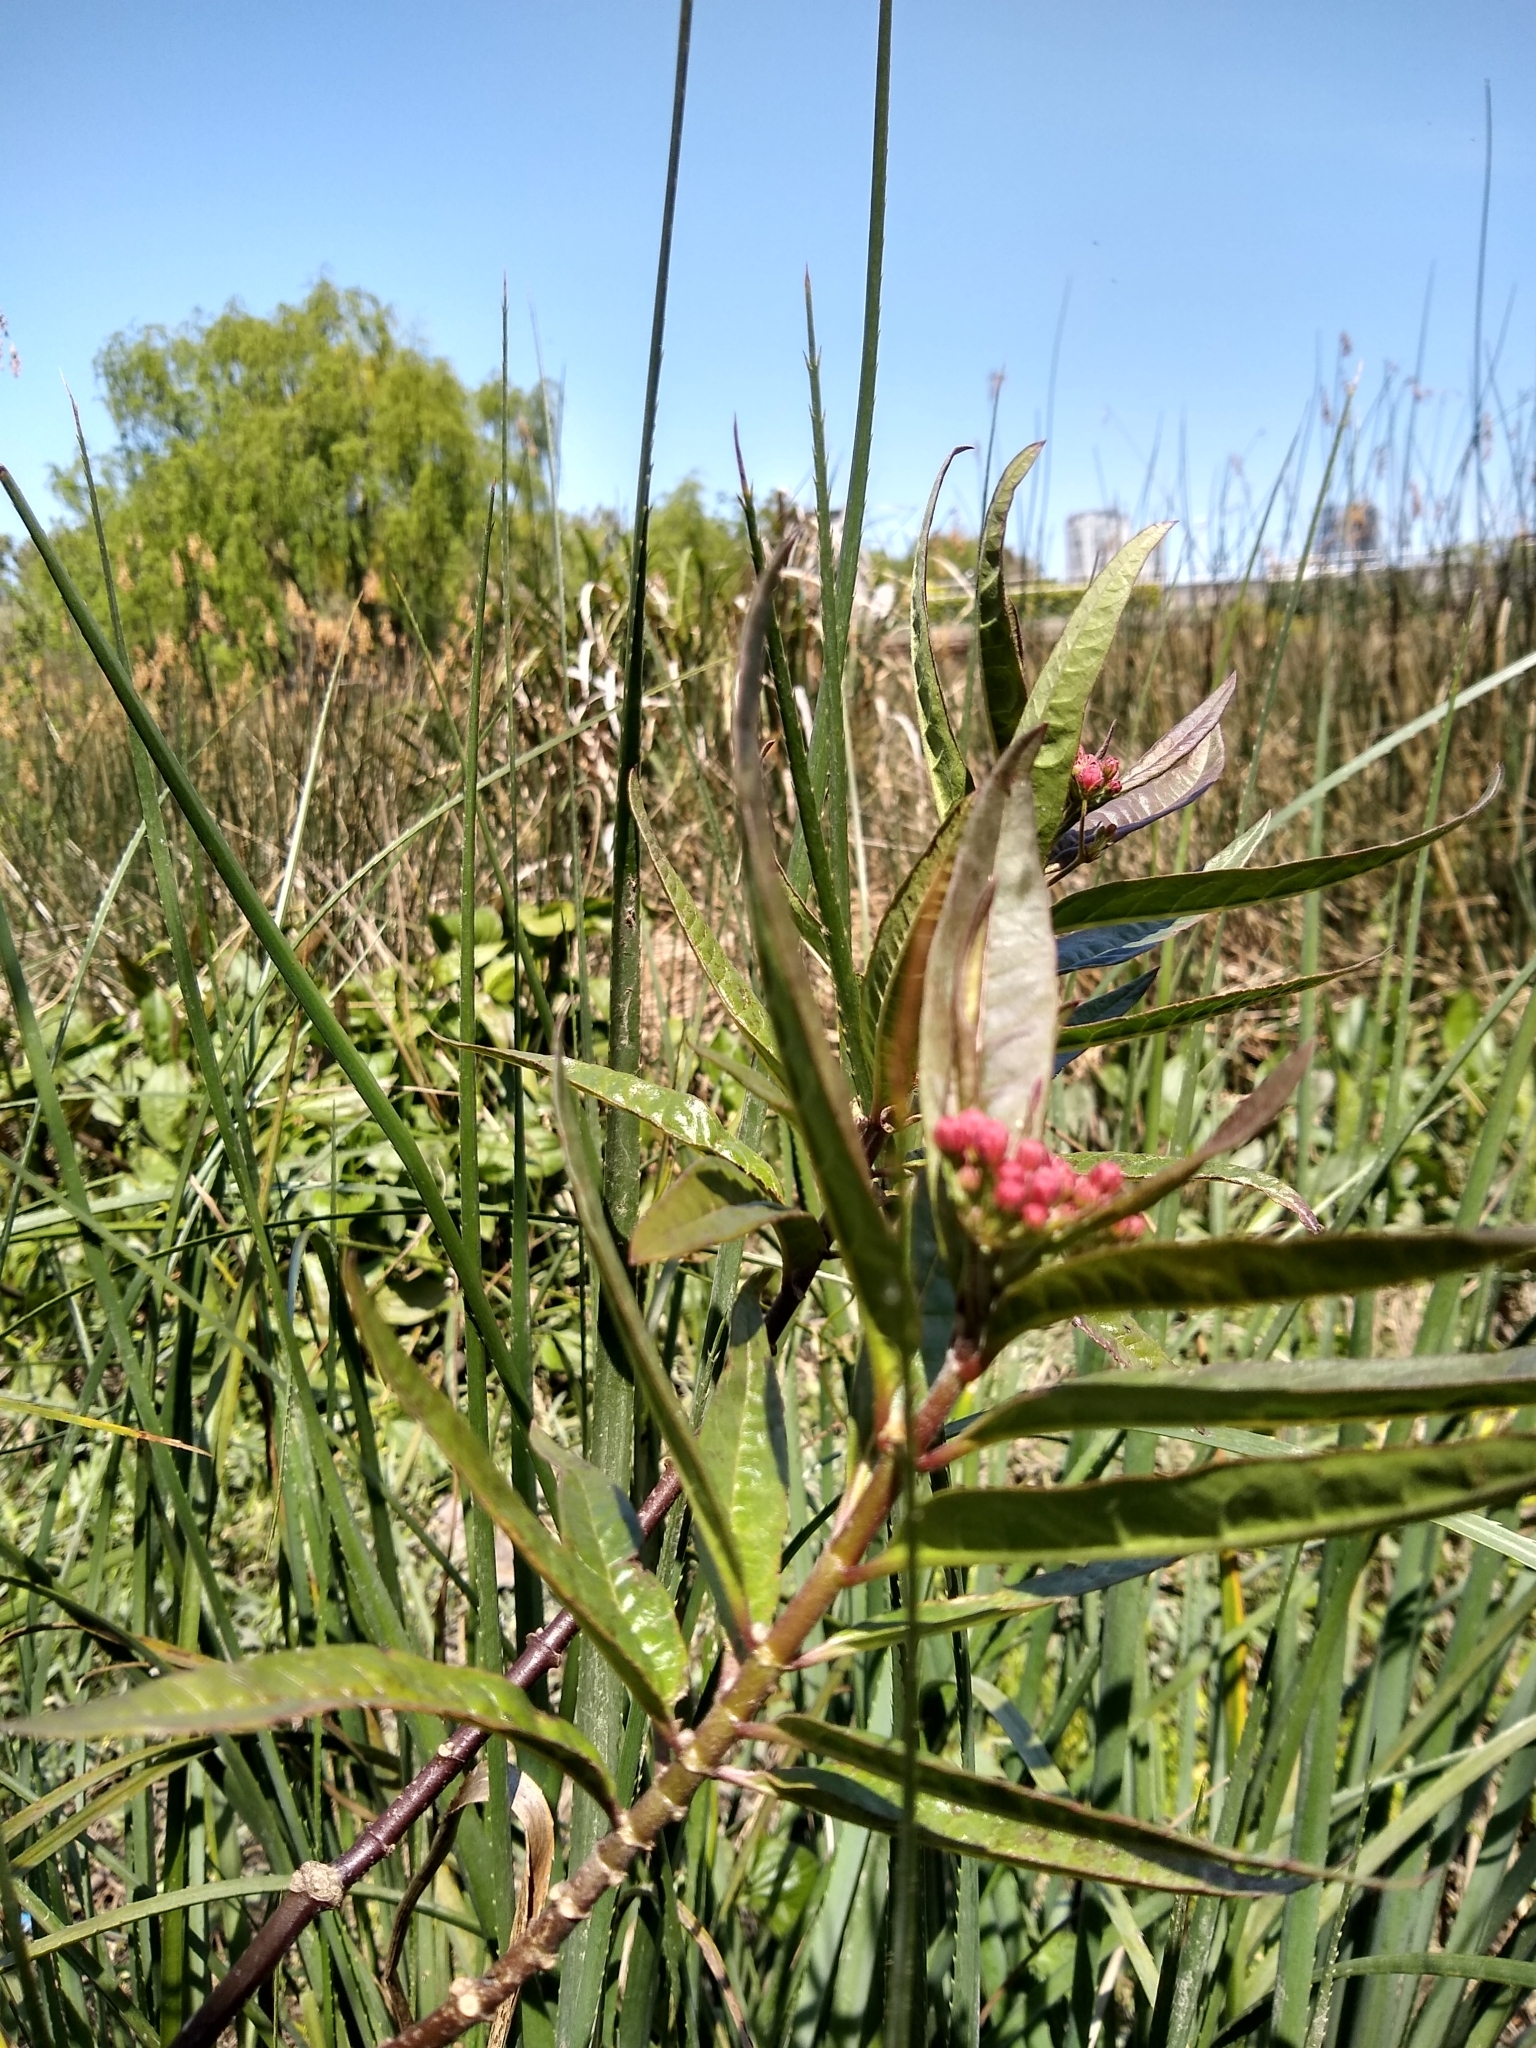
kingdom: Plantae
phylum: Tracheophyta
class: Magnoliopsida
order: Gentianales
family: Apocynaceae
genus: Asclepias
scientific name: Asclepias curassavica
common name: Bloodflower
